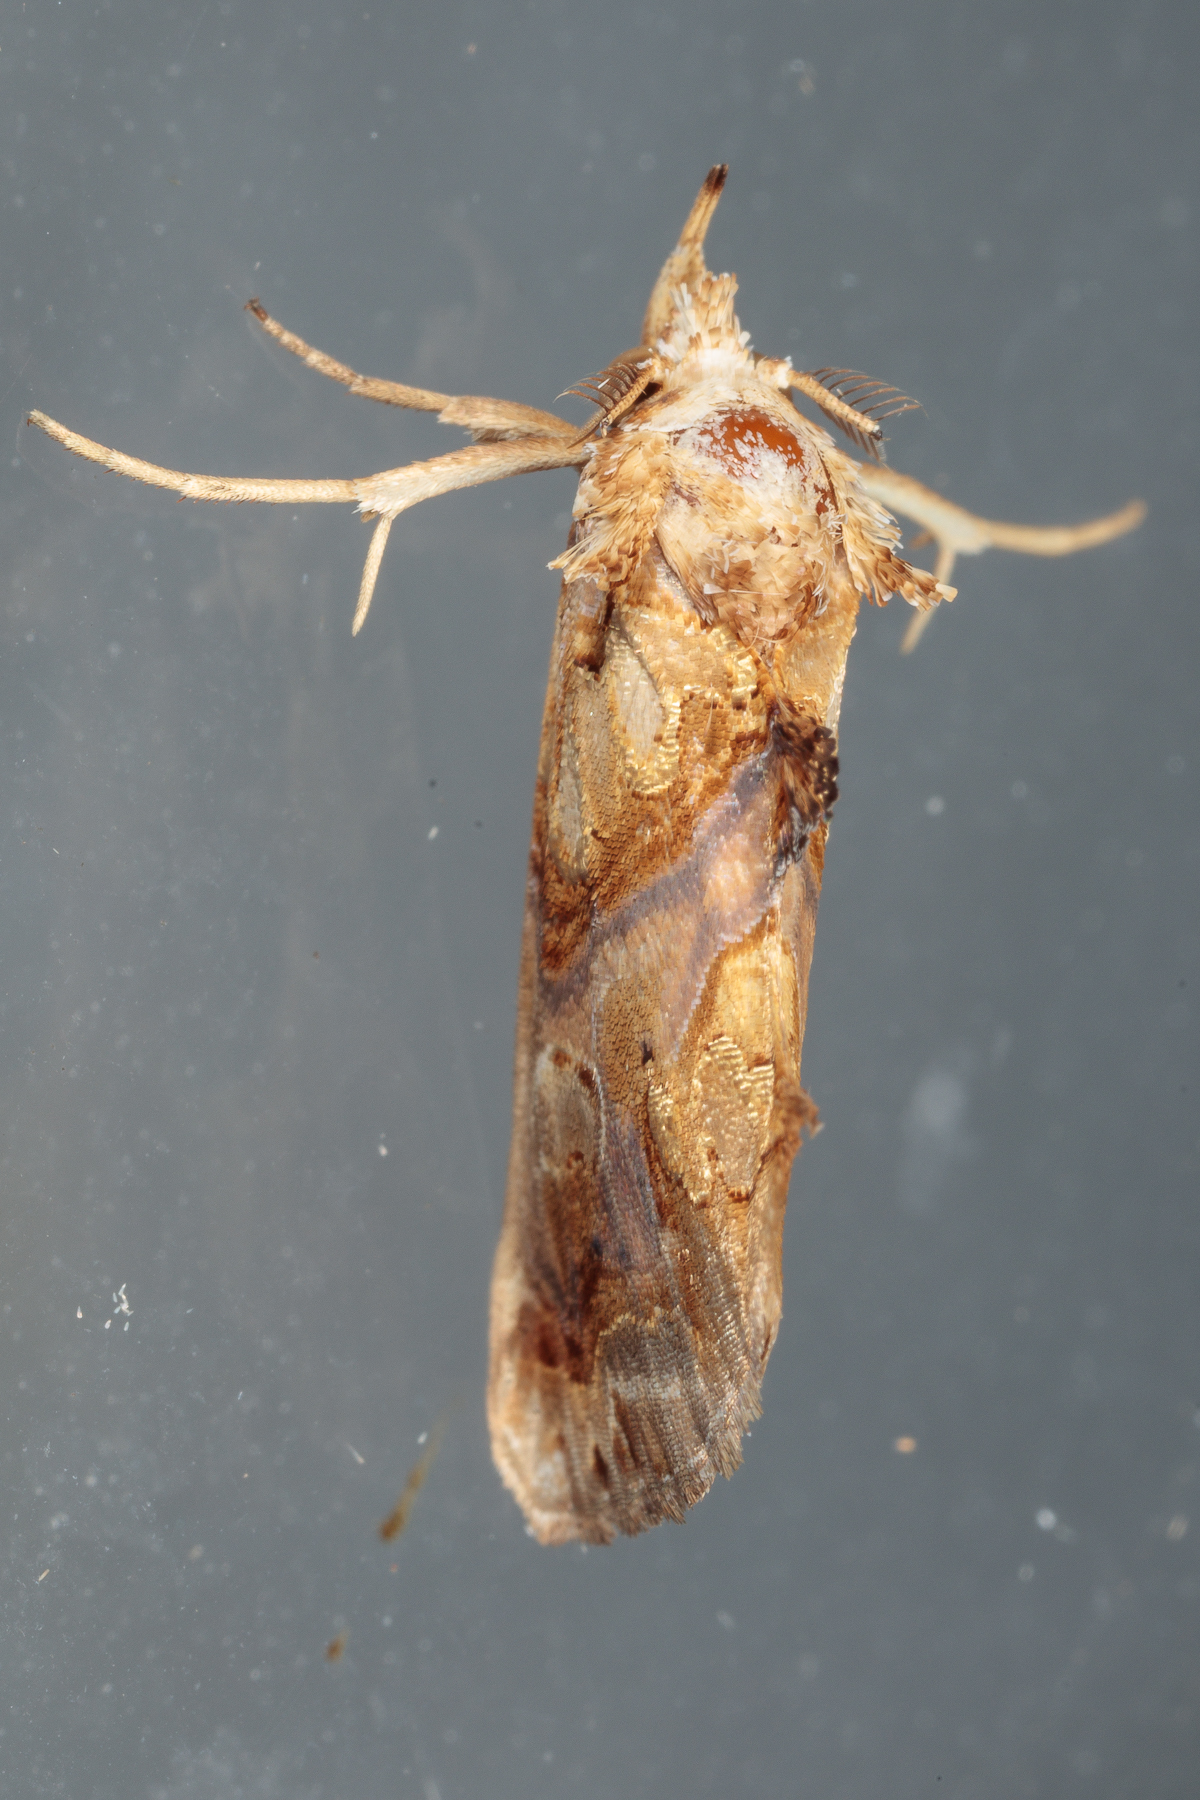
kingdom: Animalia
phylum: Arthropoda
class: Insecta
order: Lepidoptera
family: Erebidae
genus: Plusiodonta
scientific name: Plusiodonta compressipalpis
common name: Moonseed moth
